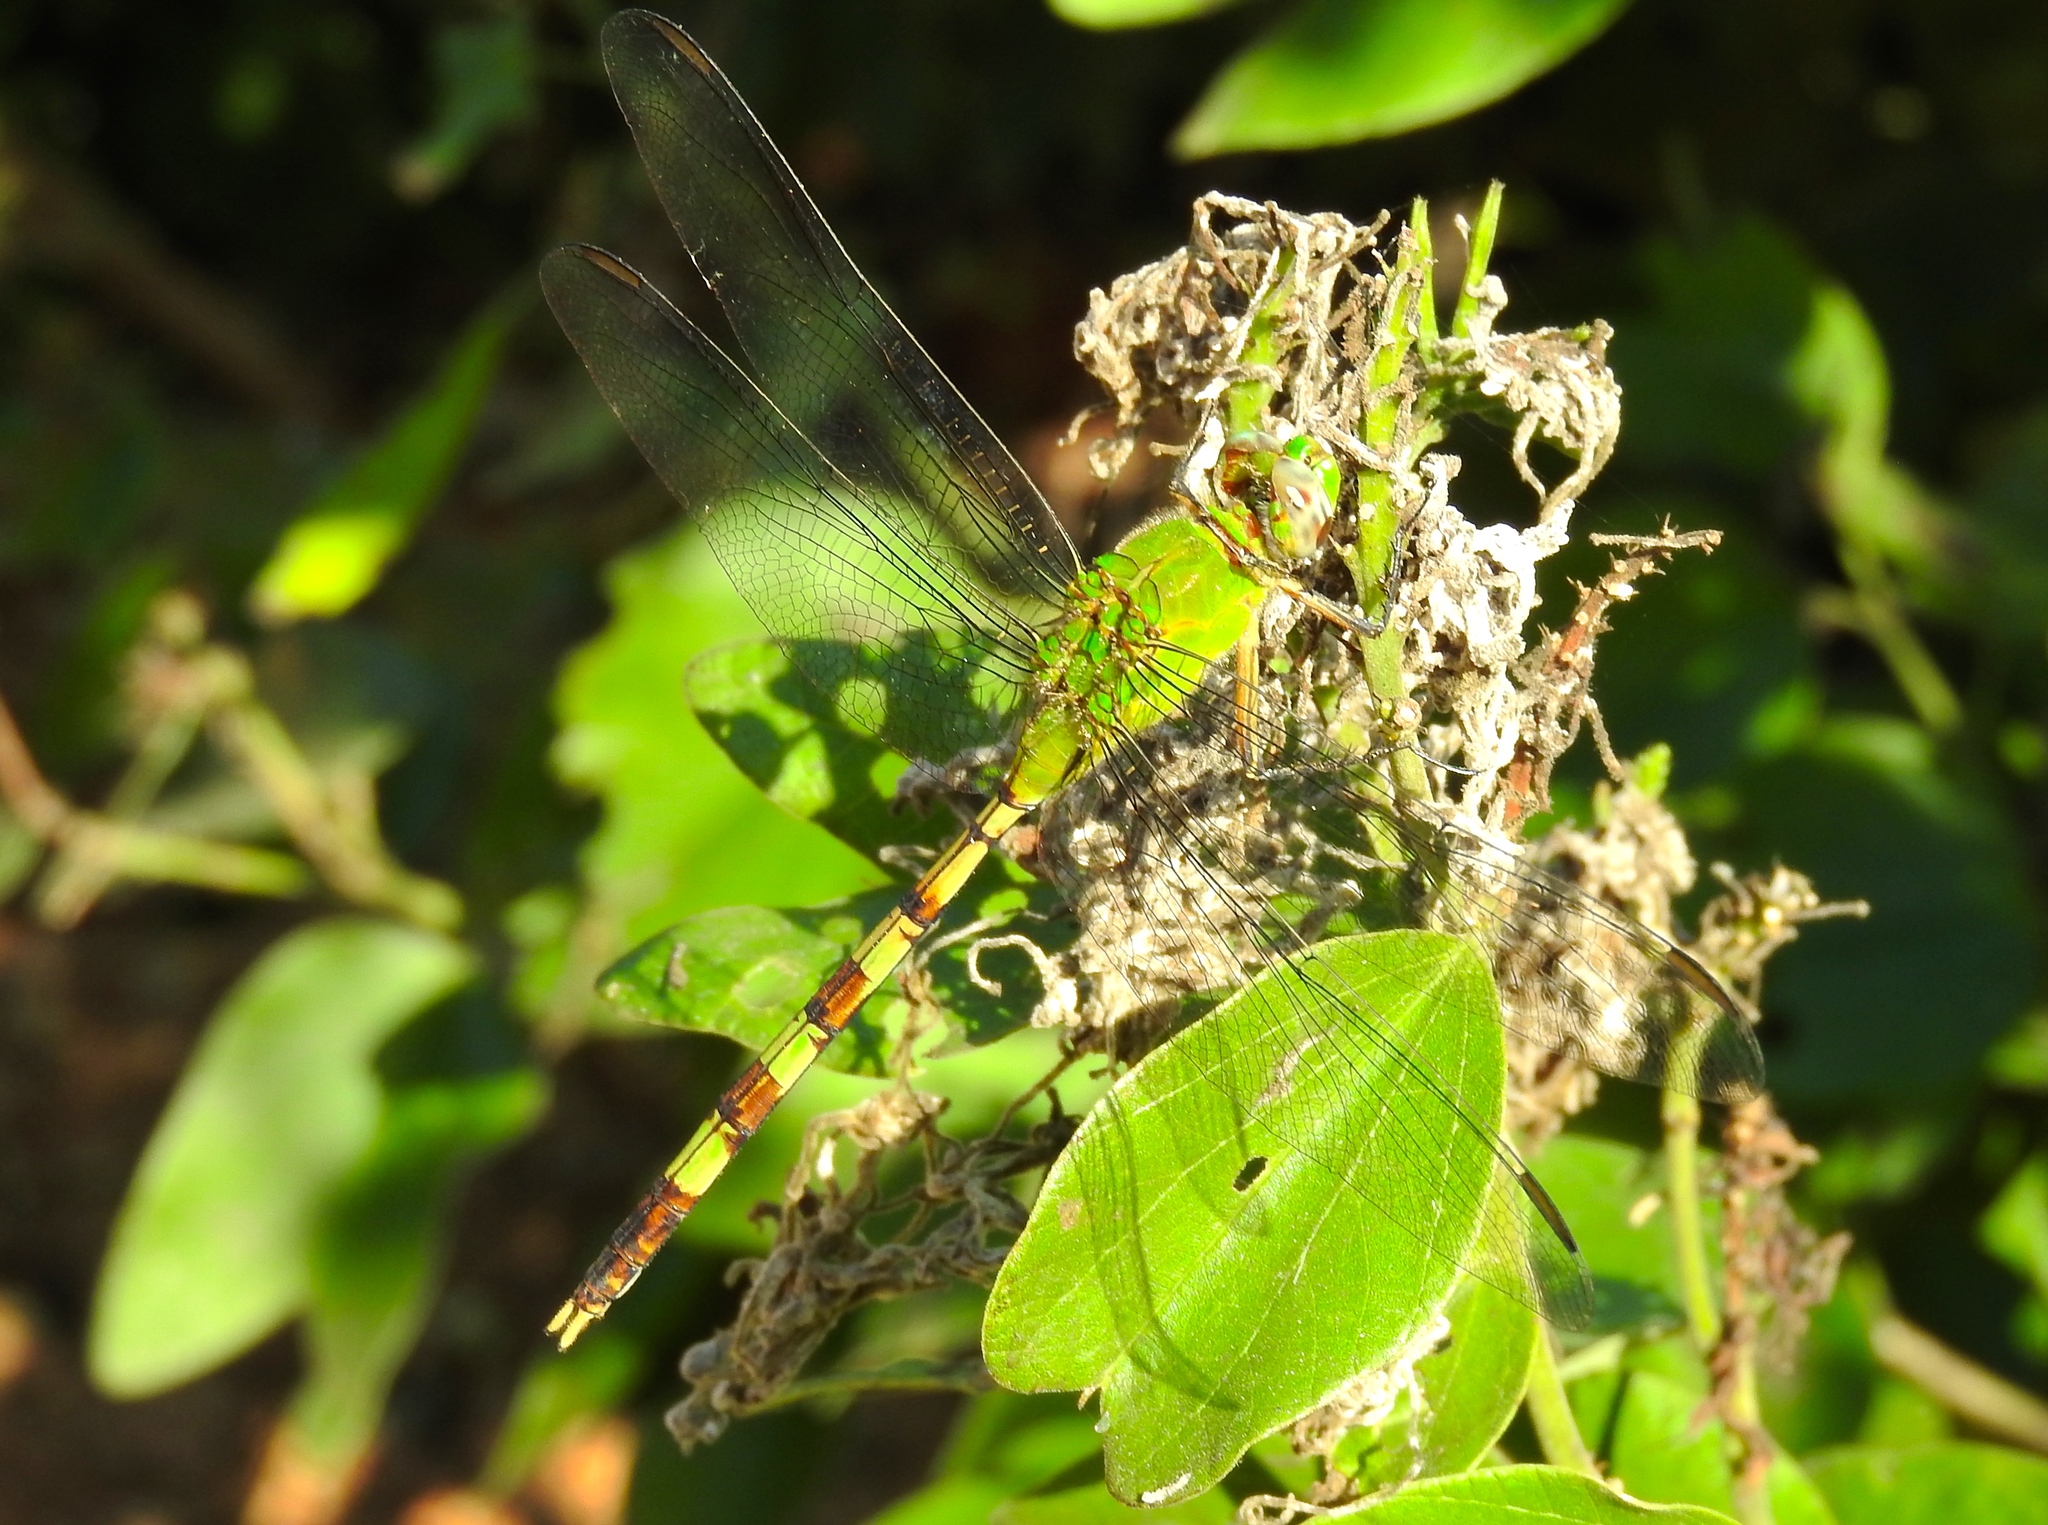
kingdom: Animalia
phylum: Arthropoda
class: Insecta
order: Odonata
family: Libellulidae
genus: Erythemis
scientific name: Erythemis vesiculosa
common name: Great pondhawk
